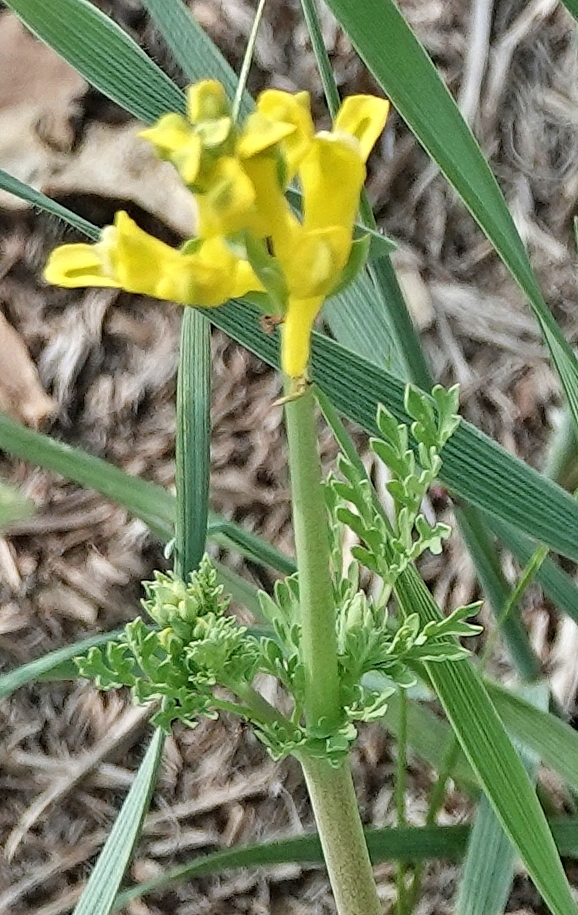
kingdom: Plantae
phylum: Tracheophyta
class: Magnoliopsida
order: Ranunculales
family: Papaveraceae
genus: Corydalis
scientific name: Corydalis aurea
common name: Golden corydalis
